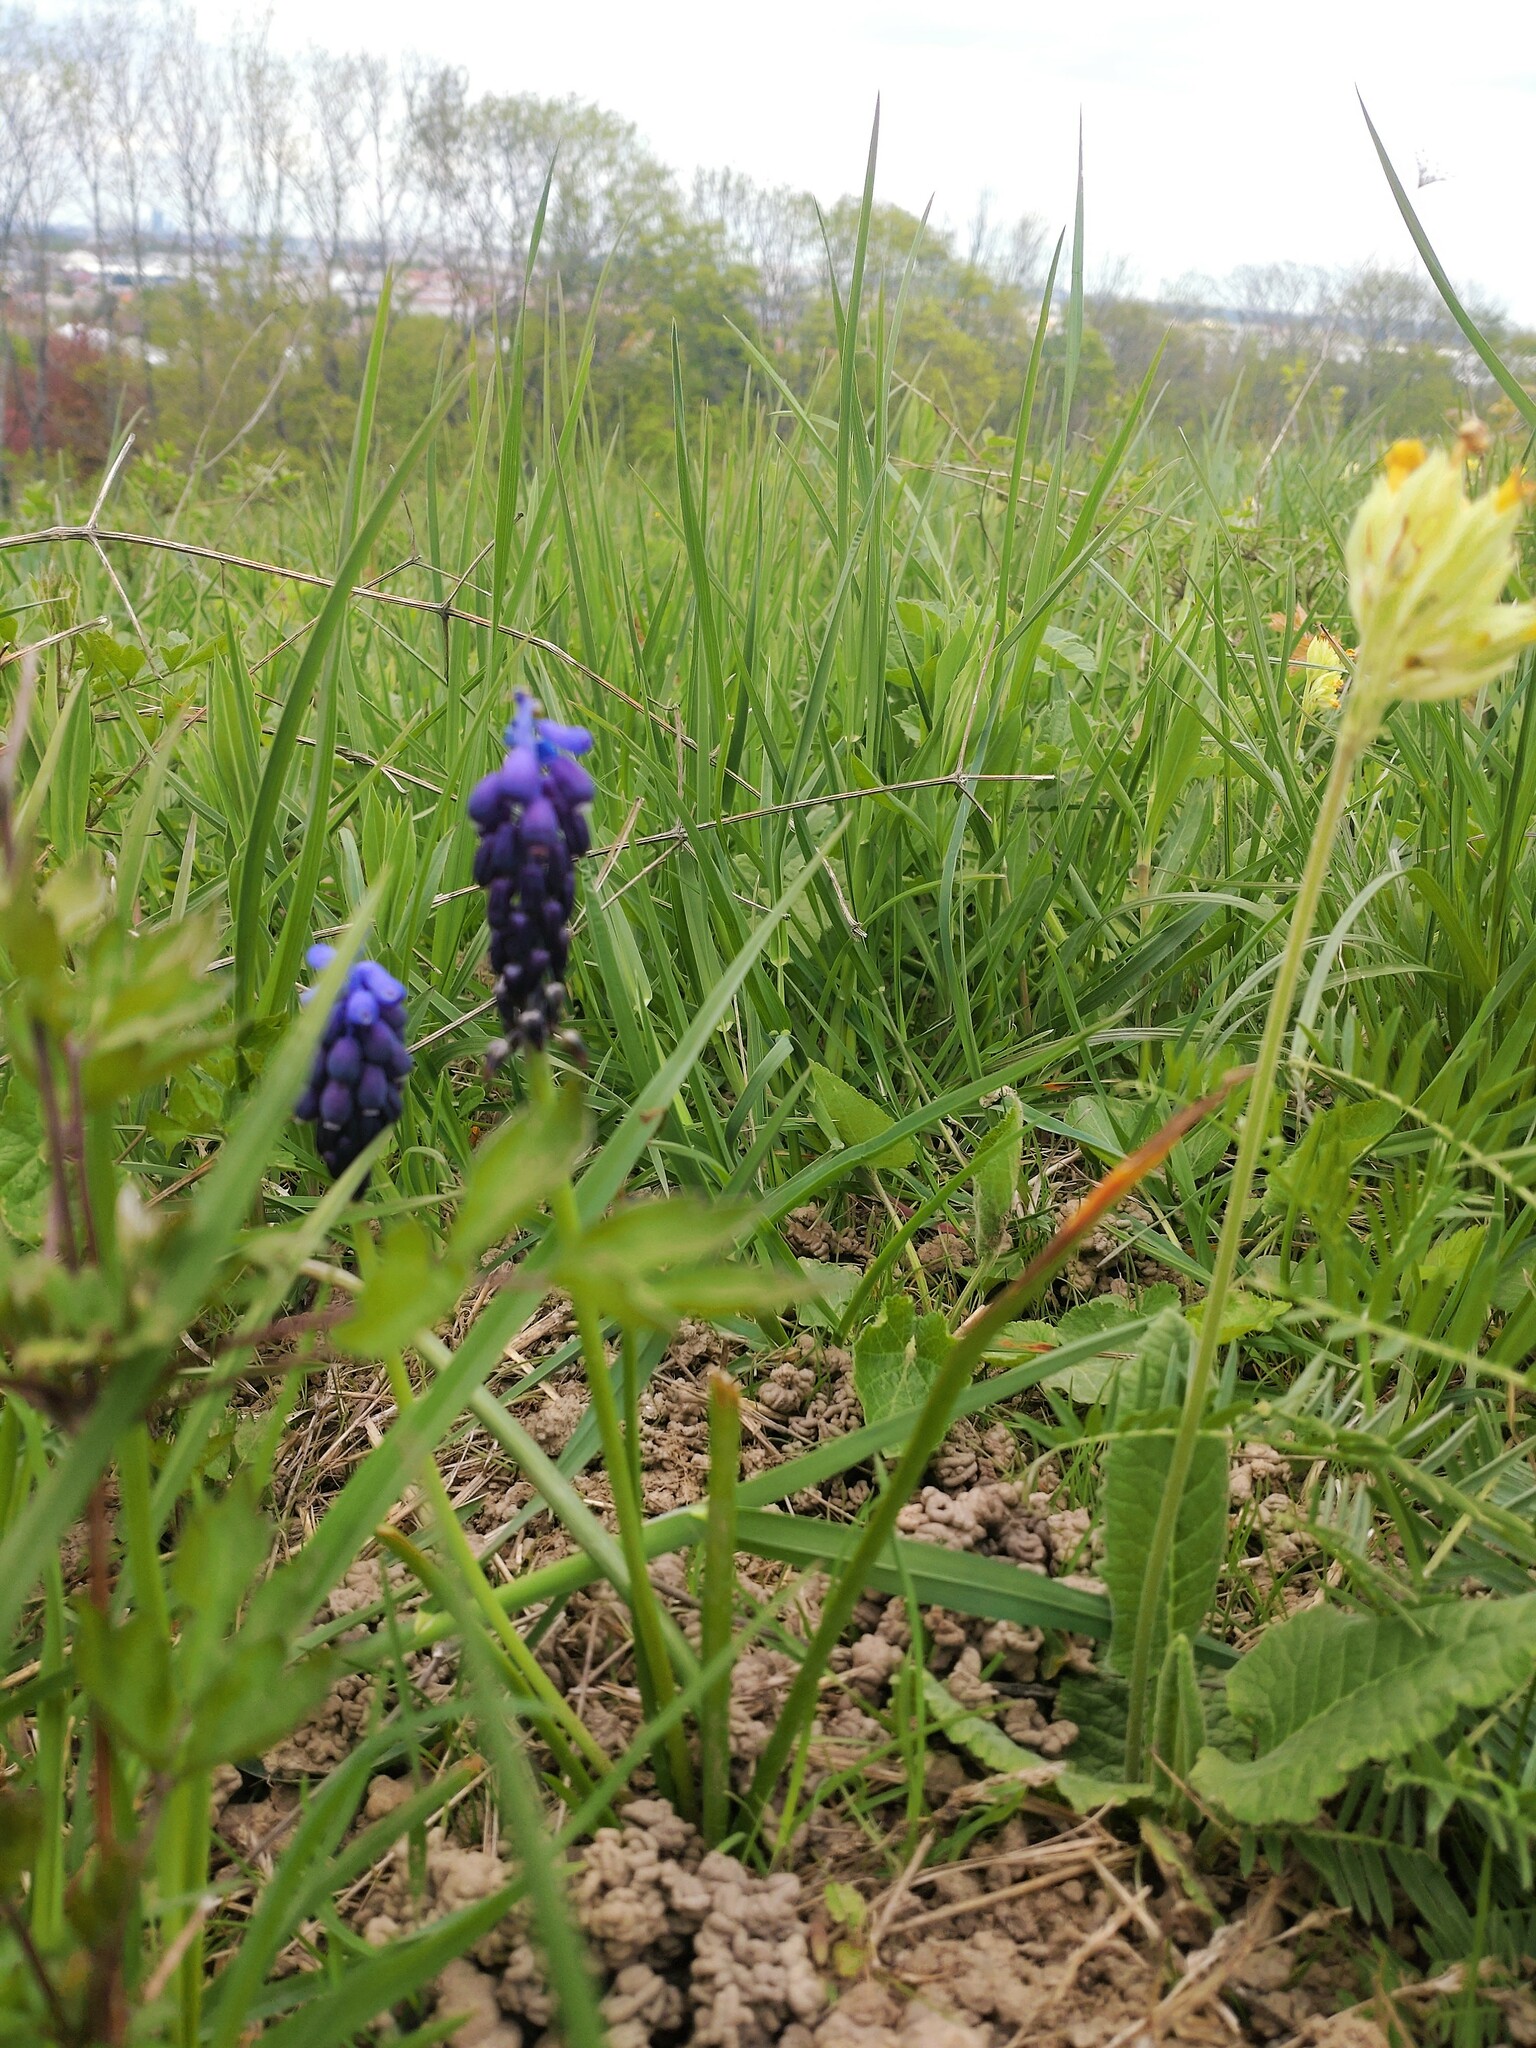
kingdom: Plantae
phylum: Tracheophyta
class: Liliopsida
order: Asparagales
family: Asparagaceae
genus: Muscari
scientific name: Muscari neglectum
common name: Grape-hyacinth
